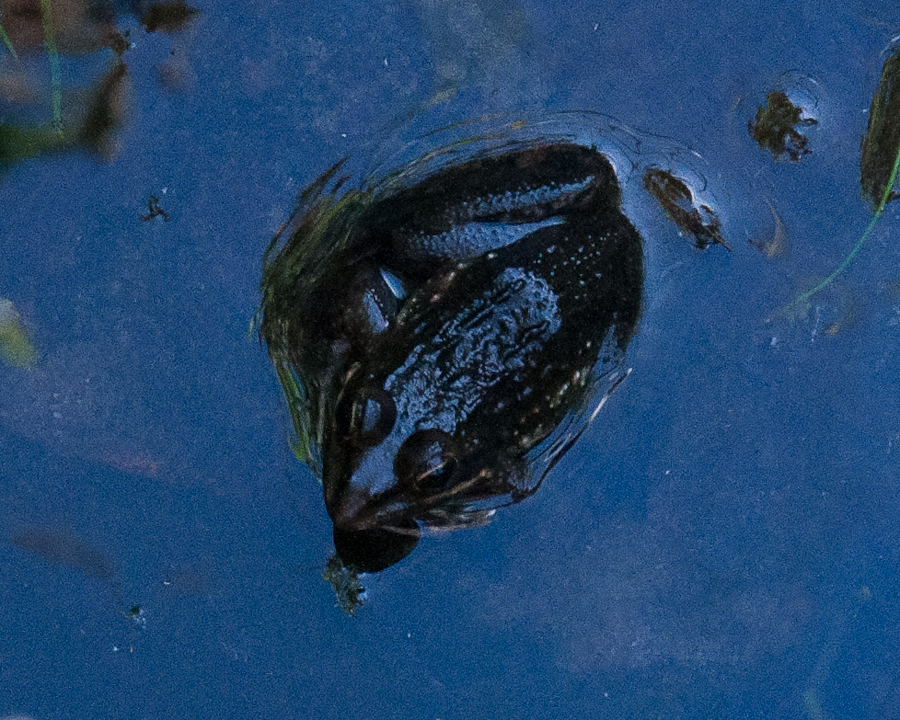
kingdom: Animalia
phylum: Chordata
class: Amphibia
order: Anura
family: Pyxicephalidae
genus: Amietia
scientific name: Amietia fuscigula
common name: Cape rana
